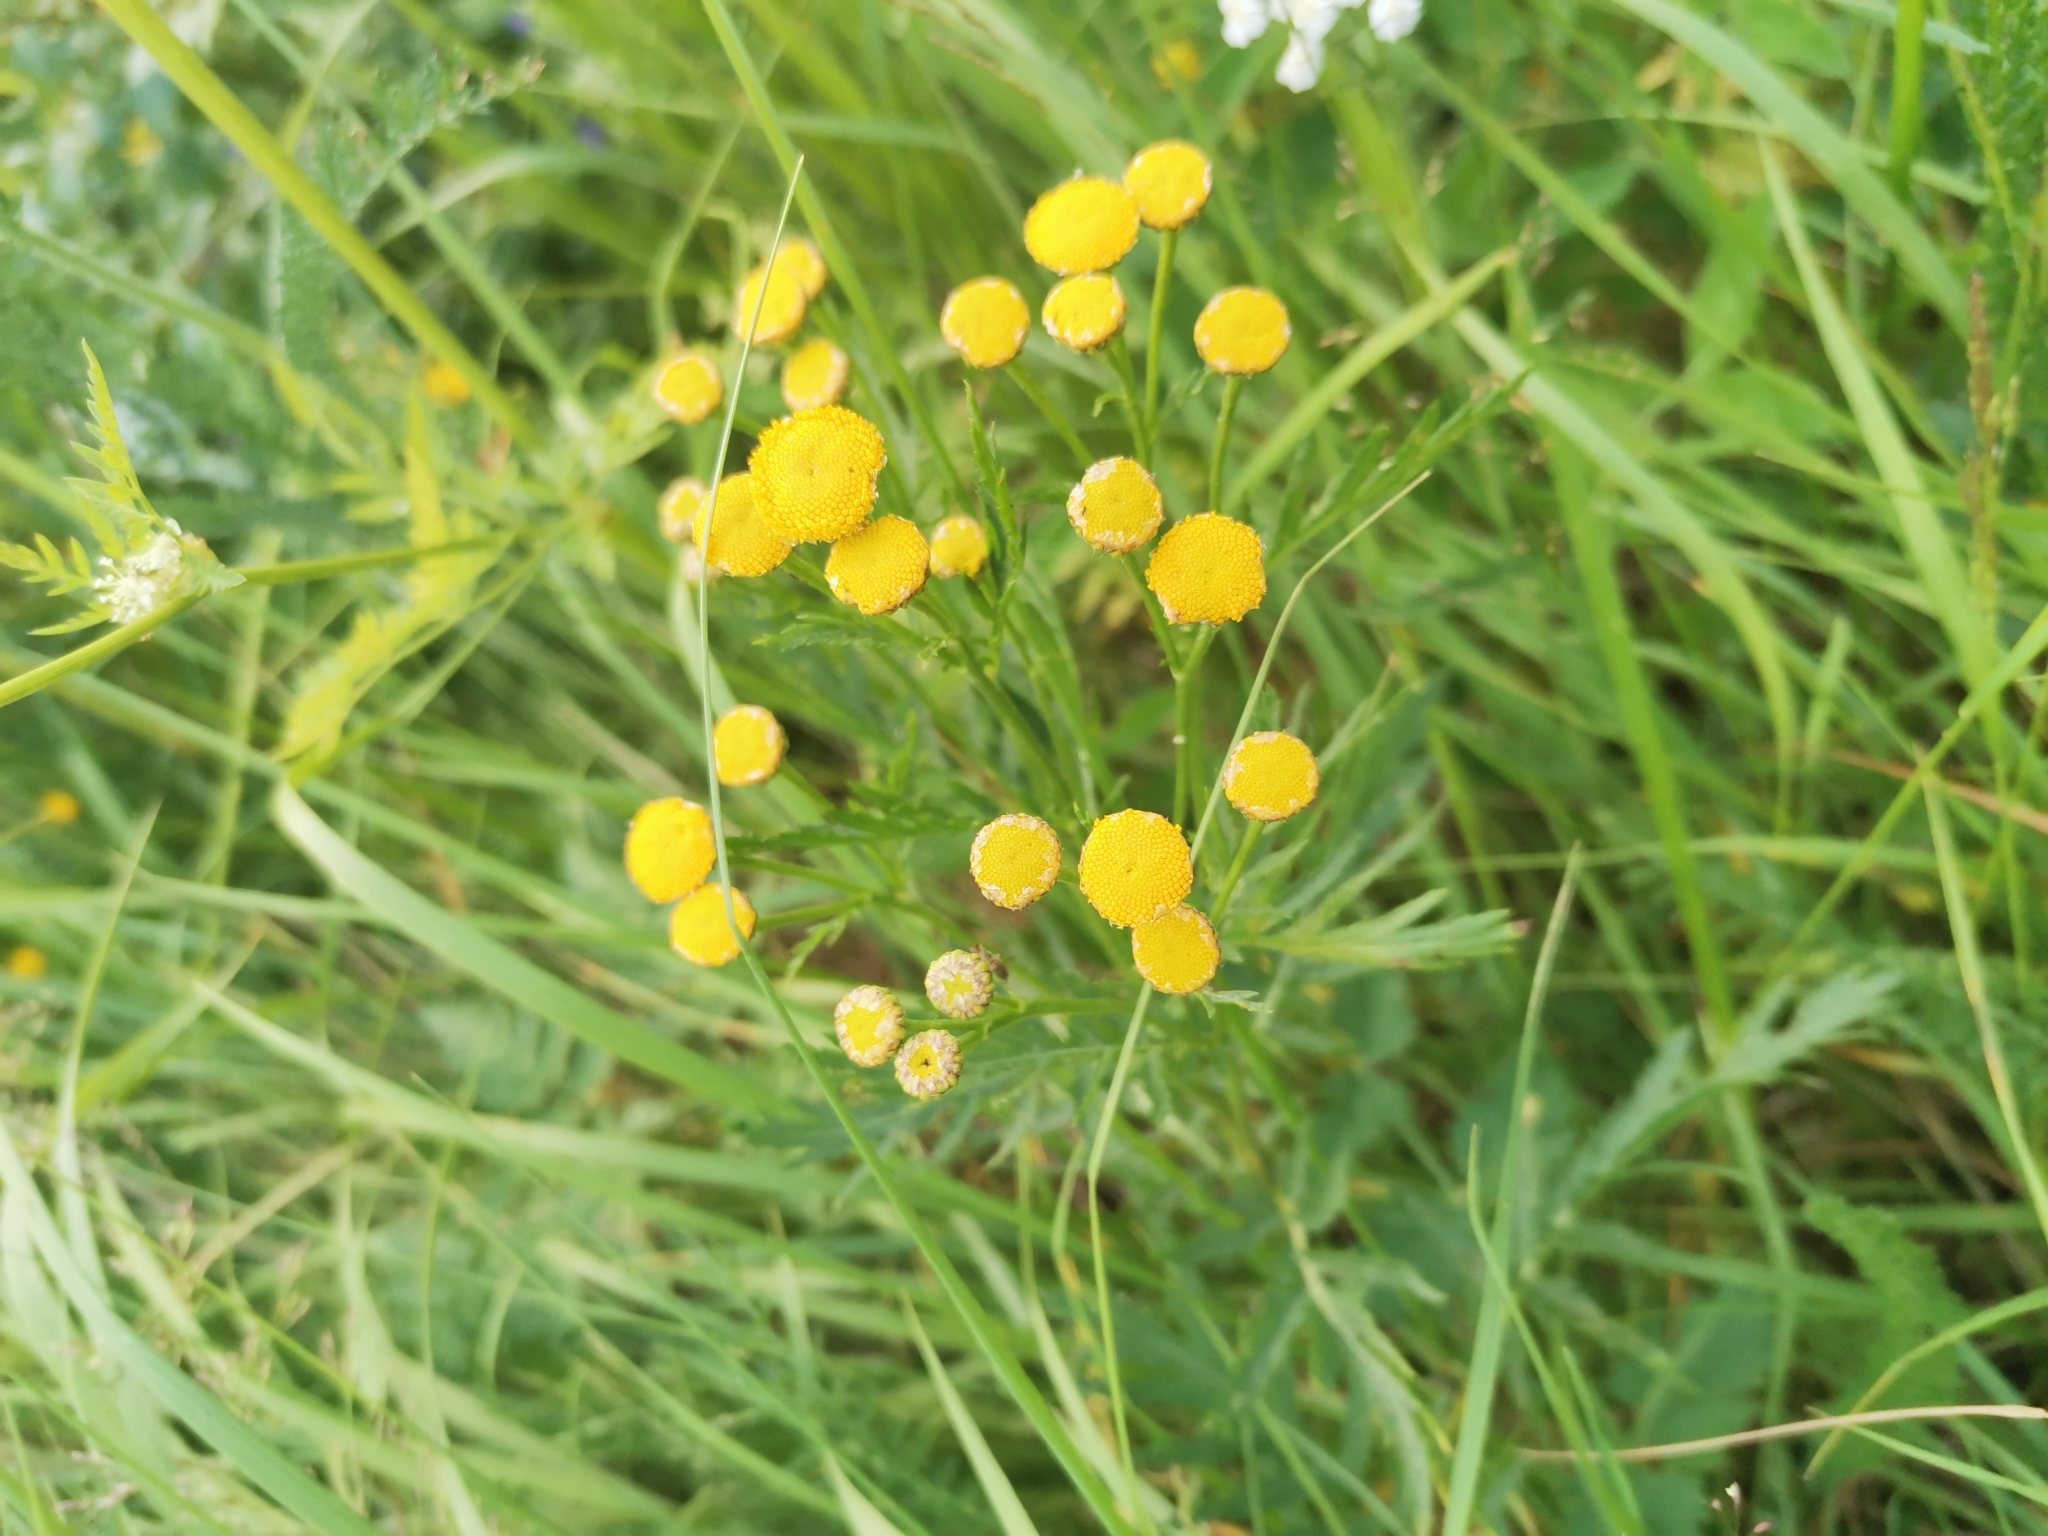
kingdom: Plantae
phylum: Tracheophyta
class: Magnoliopsida
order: Asterales
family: Asteraceae
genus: Tanacetum
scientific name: Tanacetum vulgare
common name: Common tansy
